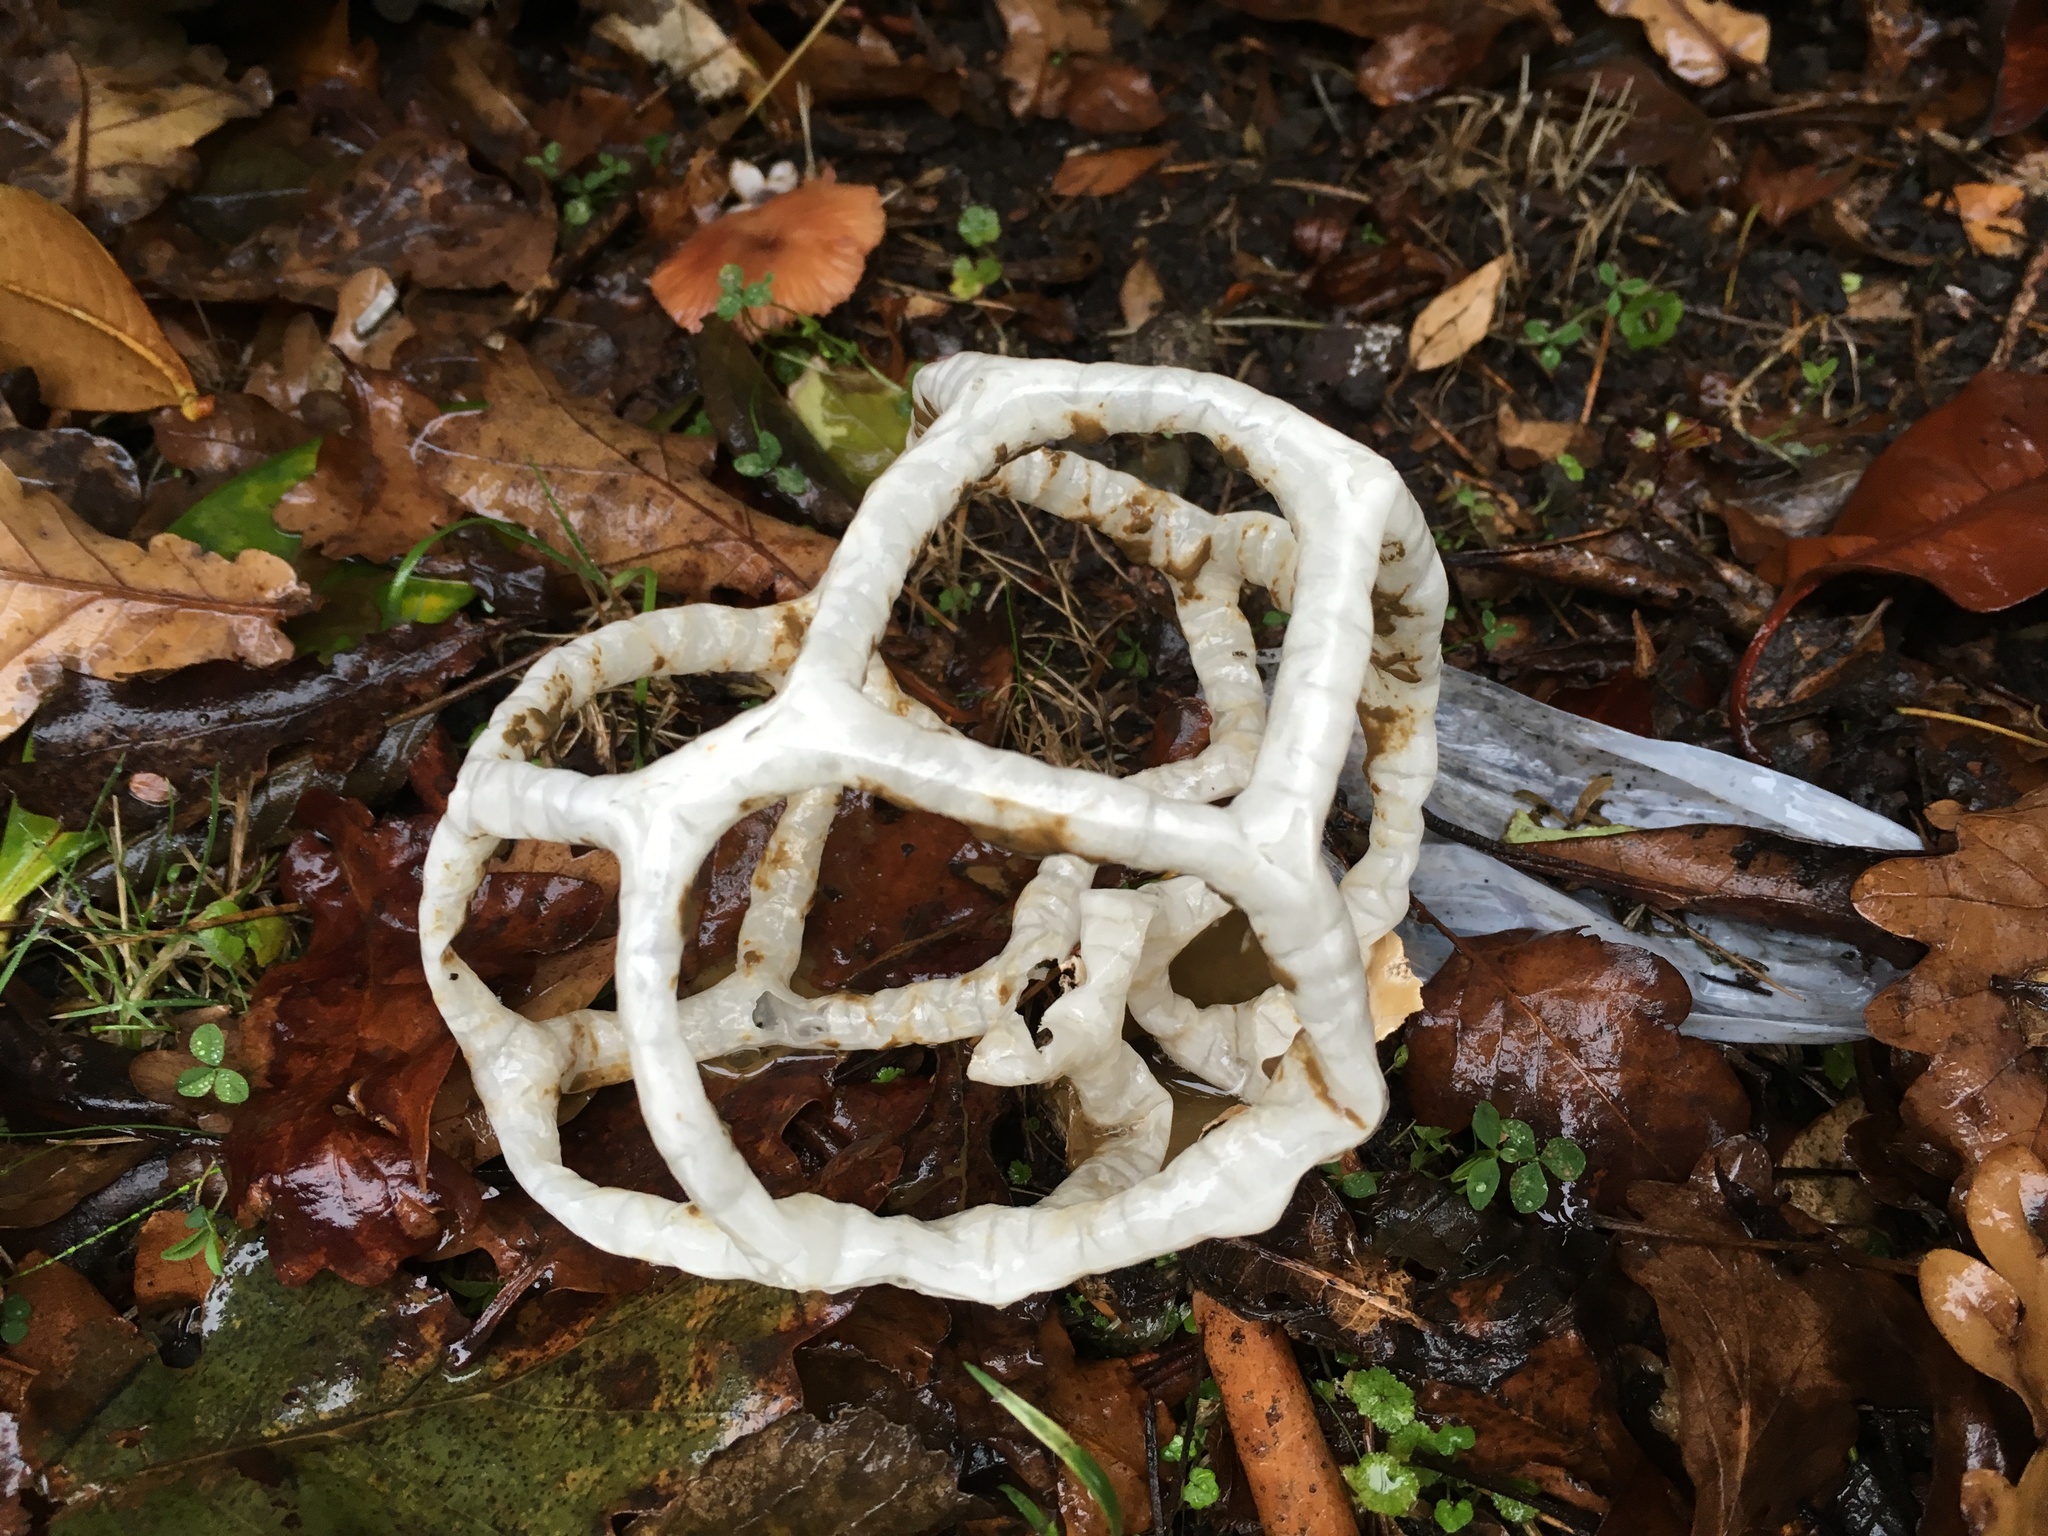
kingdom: Fungi
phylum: Basidiomycota
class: Agaricomycetes
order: Phallales
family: Phallaceae
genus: Ileodictyon
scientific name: Ileodictyon cibarium
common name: Basket fungus
